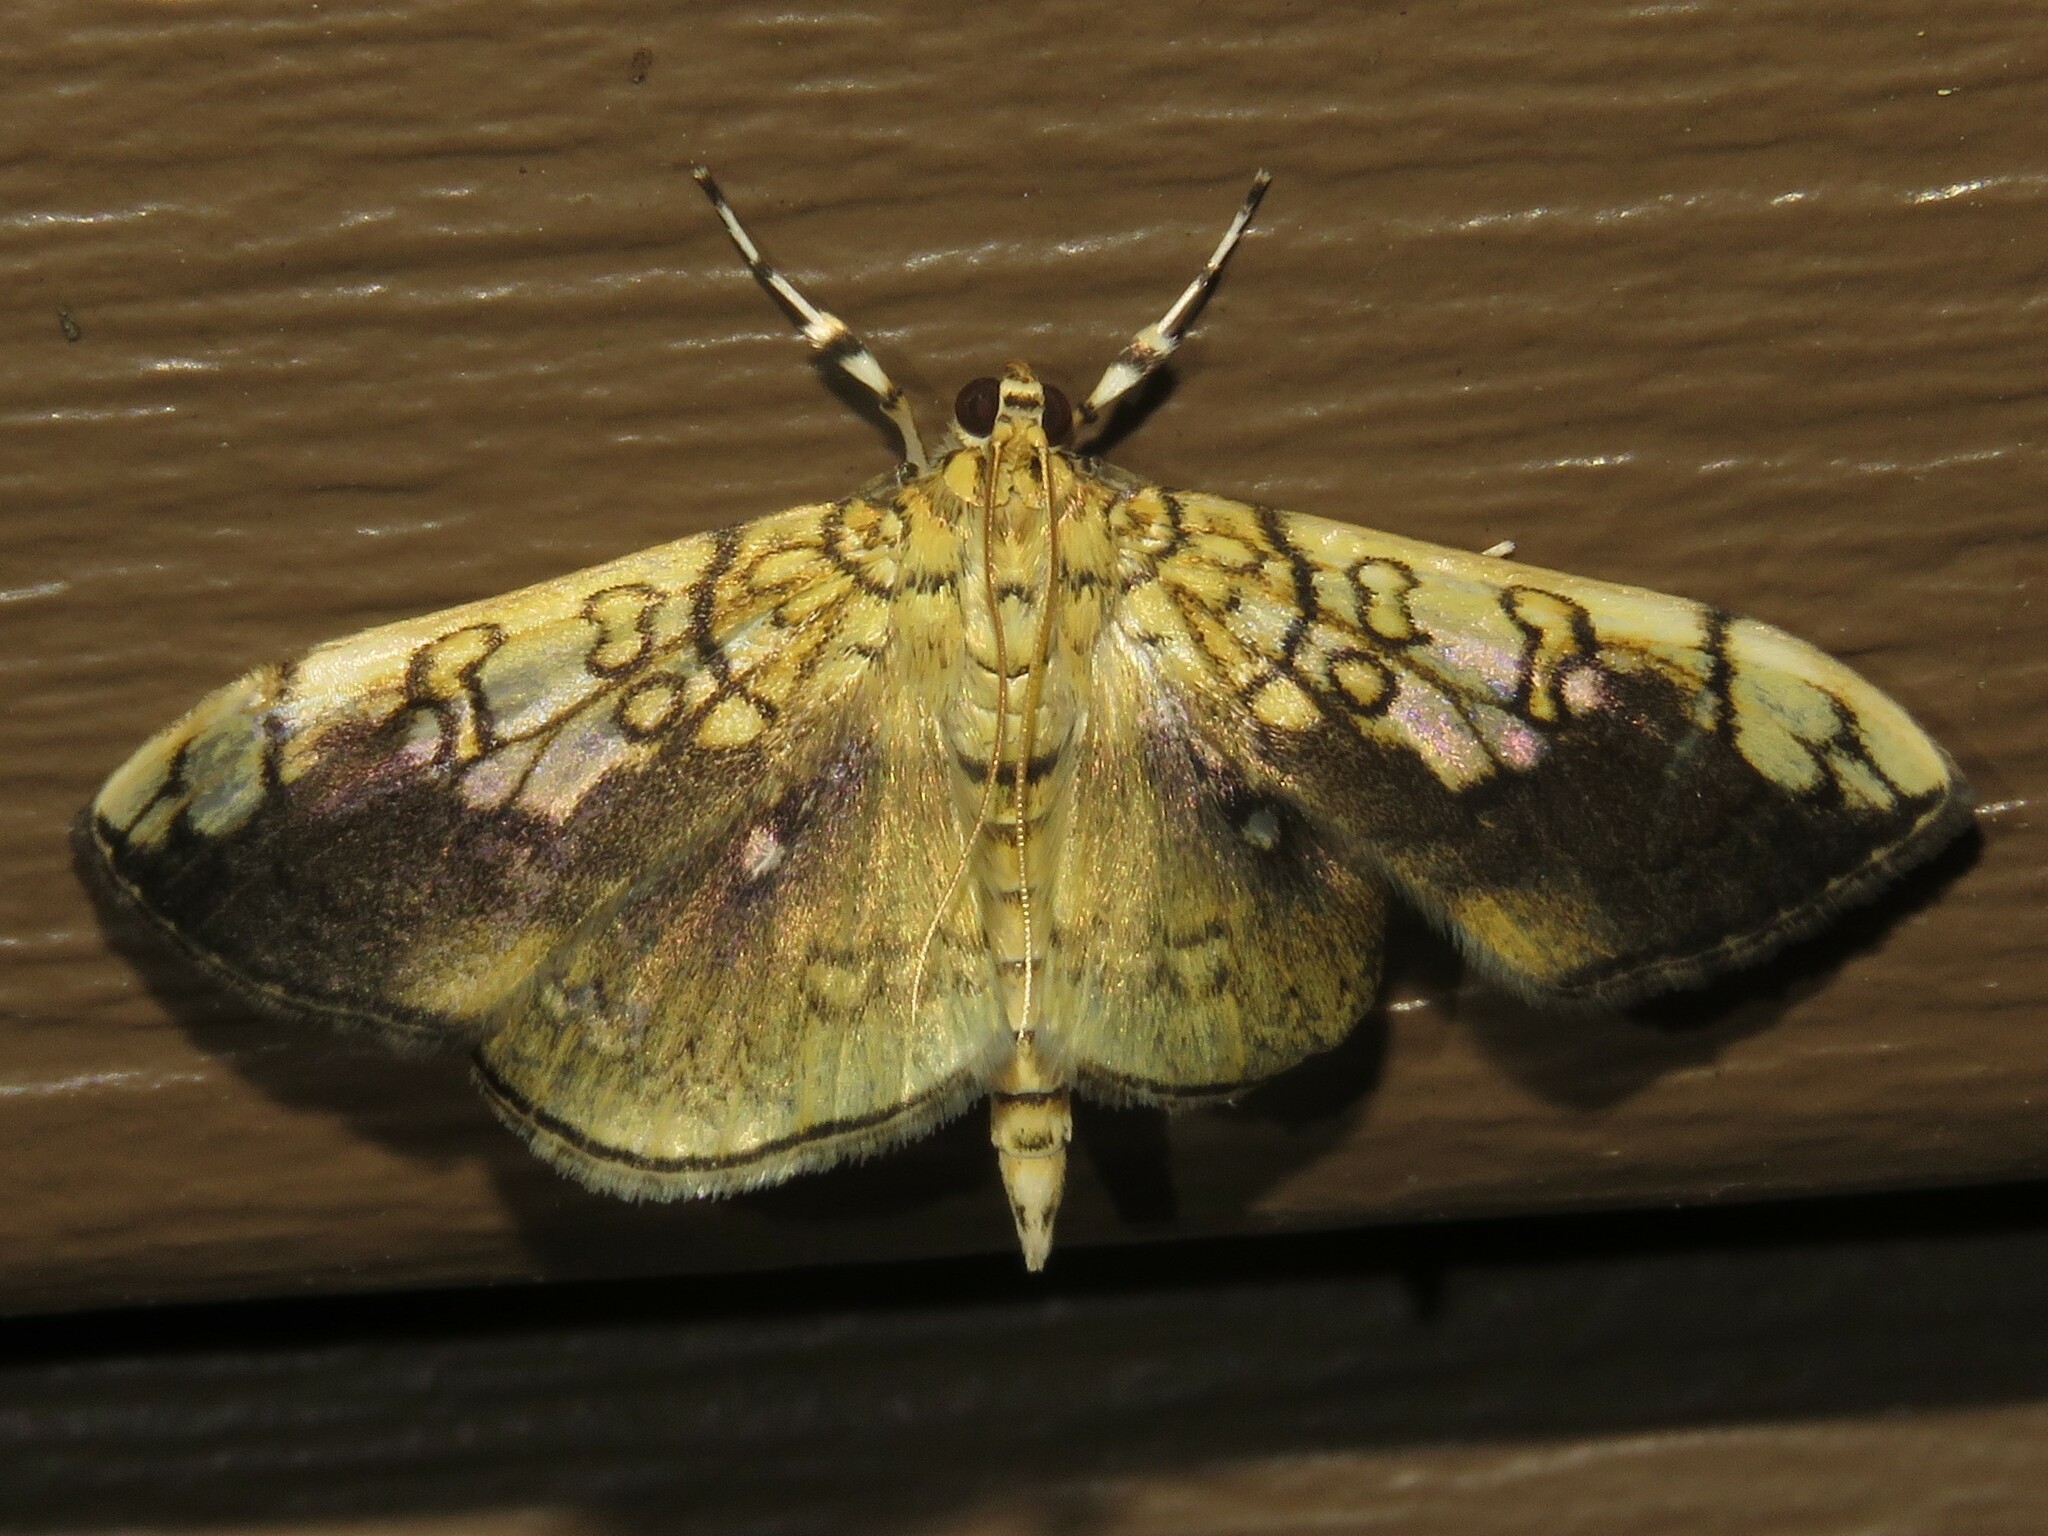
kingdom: Animalia
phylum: Arthropoda
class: Insecta
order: Lepidoptera
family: Crambidae
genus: Pantographa
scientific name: Pantographa limata
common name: Basswood leafroller moth
